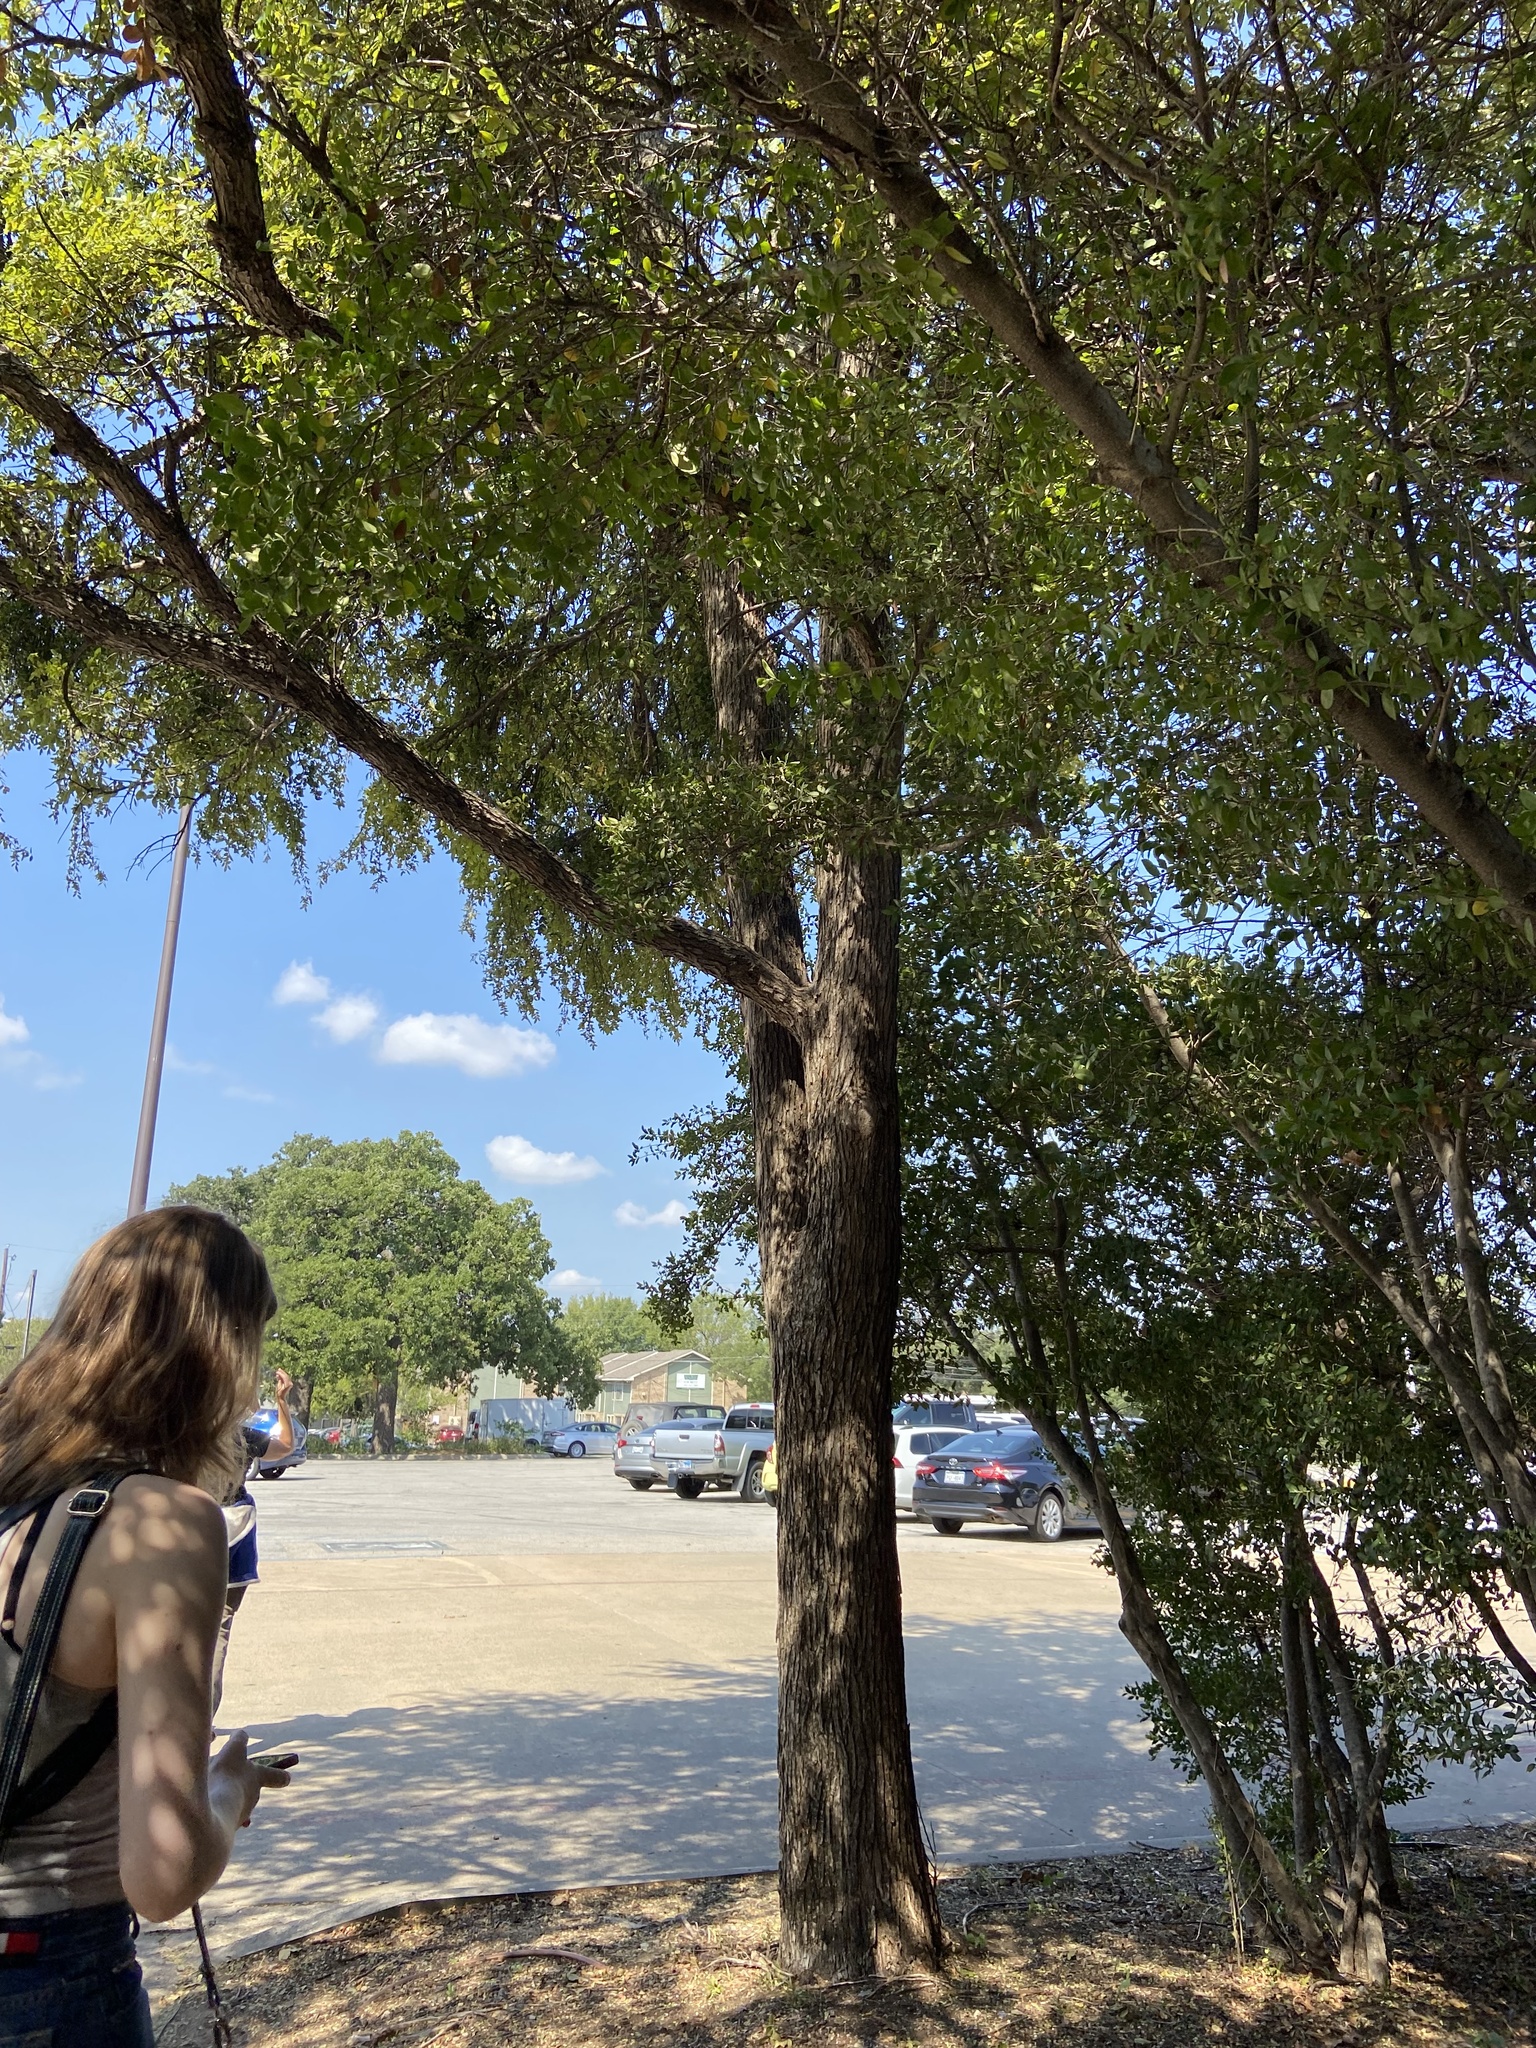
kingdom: Plantae
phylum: Tracheophyta
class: Magnoliopsida
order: Rosales
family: Ulmaceae
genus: Ulmus
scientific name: Ulmus crassifolia
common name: Basket elm
